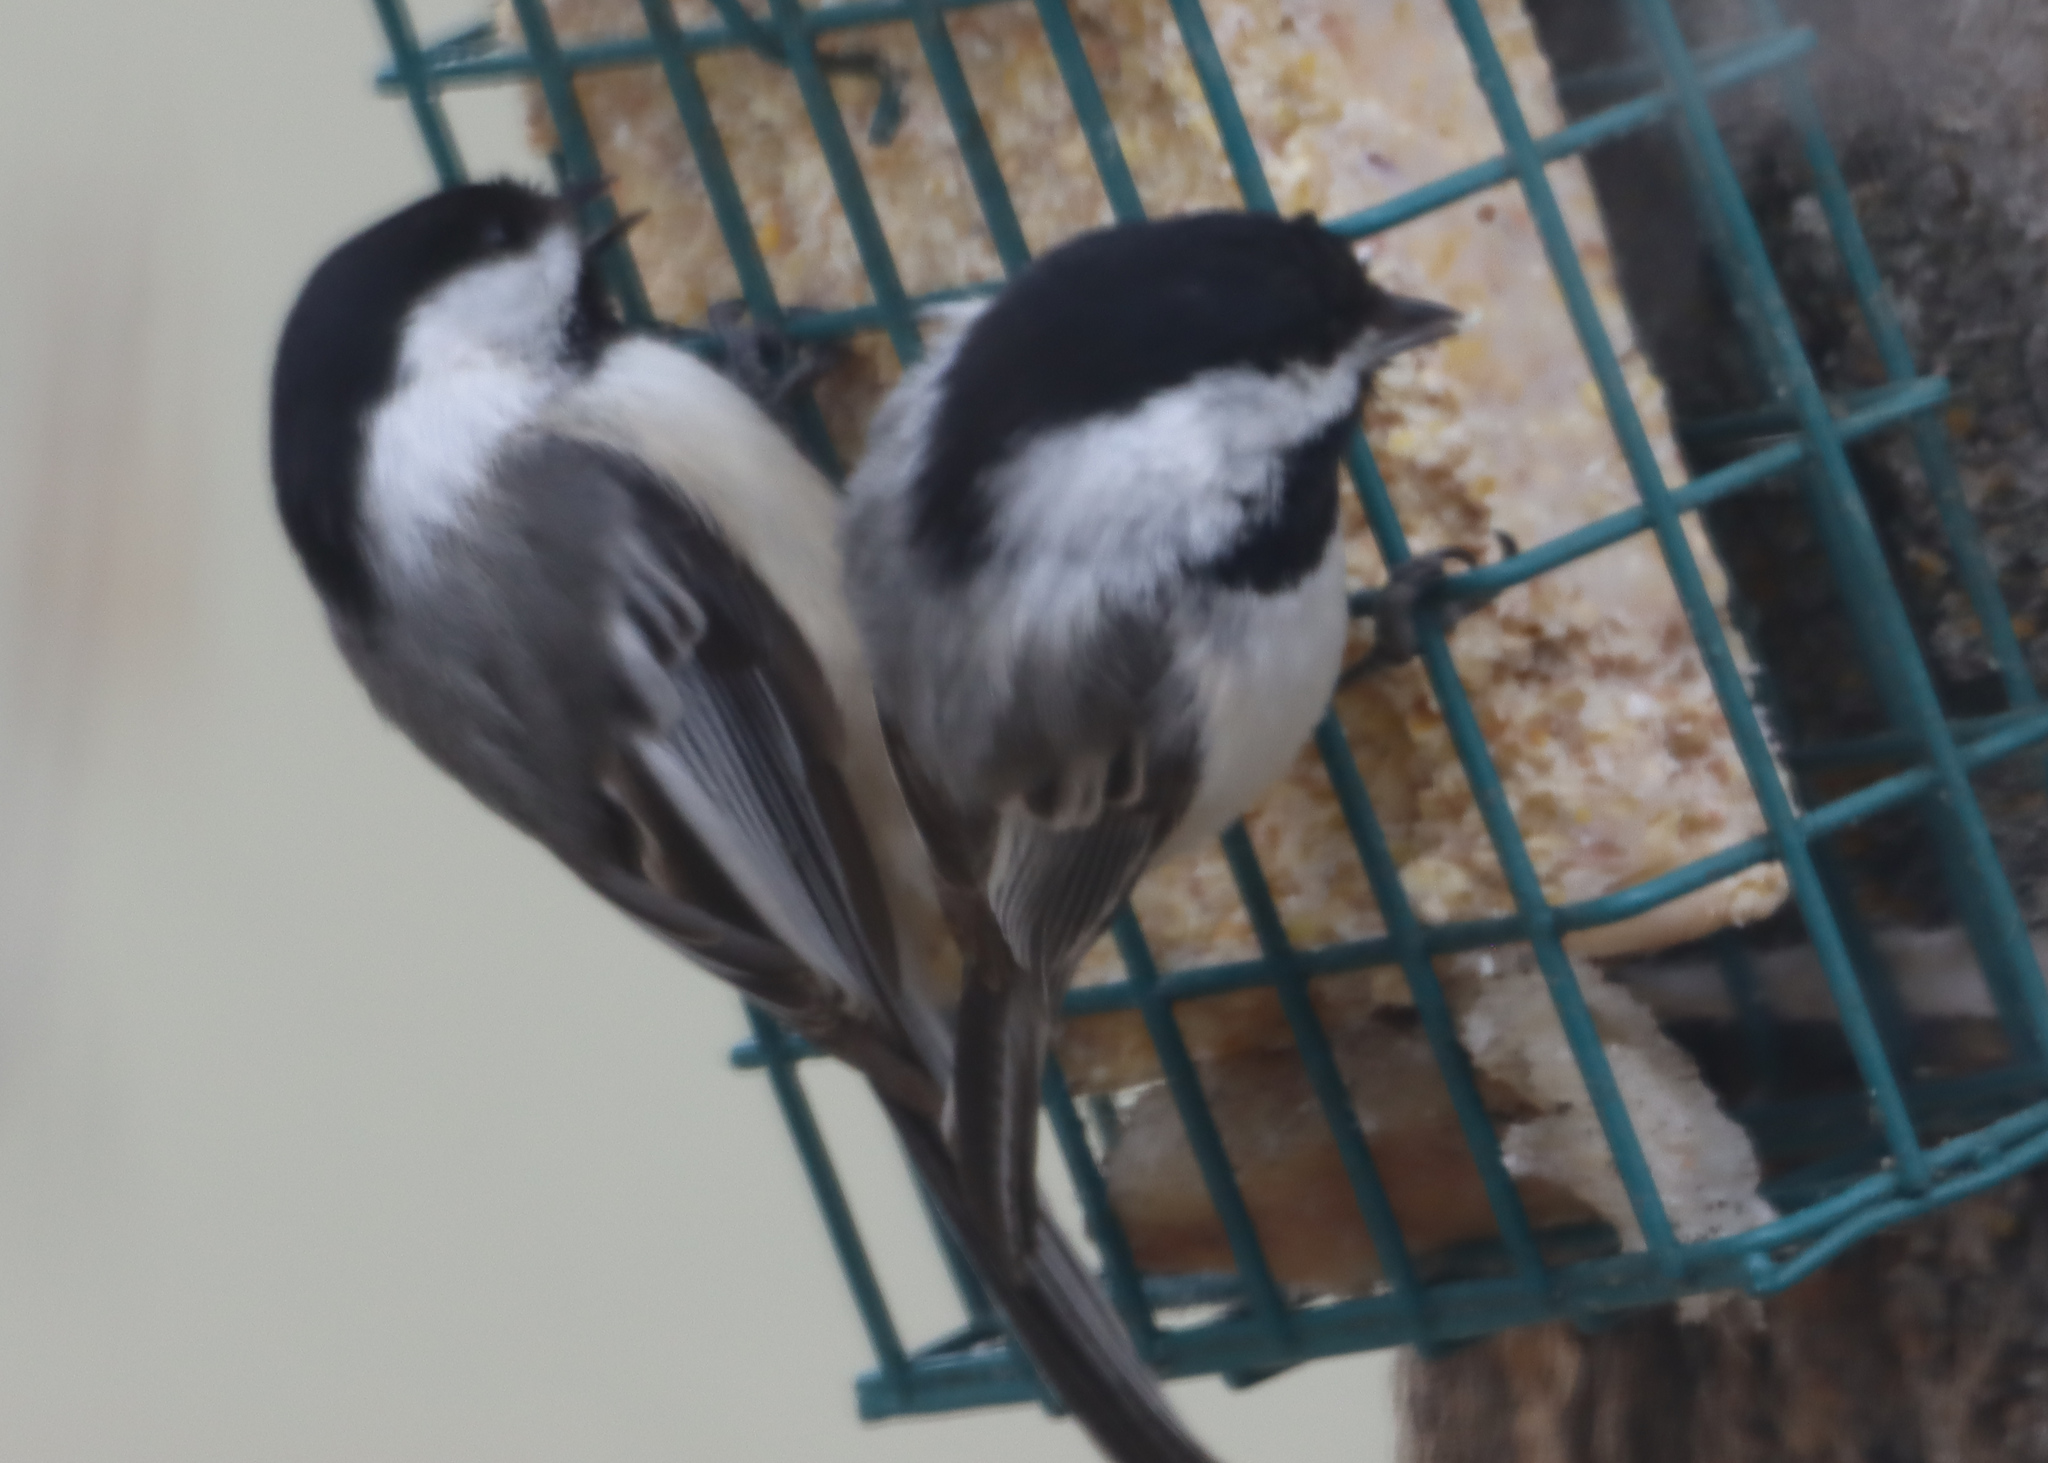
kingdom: Animalia
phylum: Chordata
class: Aves
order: Passeriformes
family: Paridae
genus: Poecile
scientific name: Poecile atricapillus
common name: Black-capped chickadee
